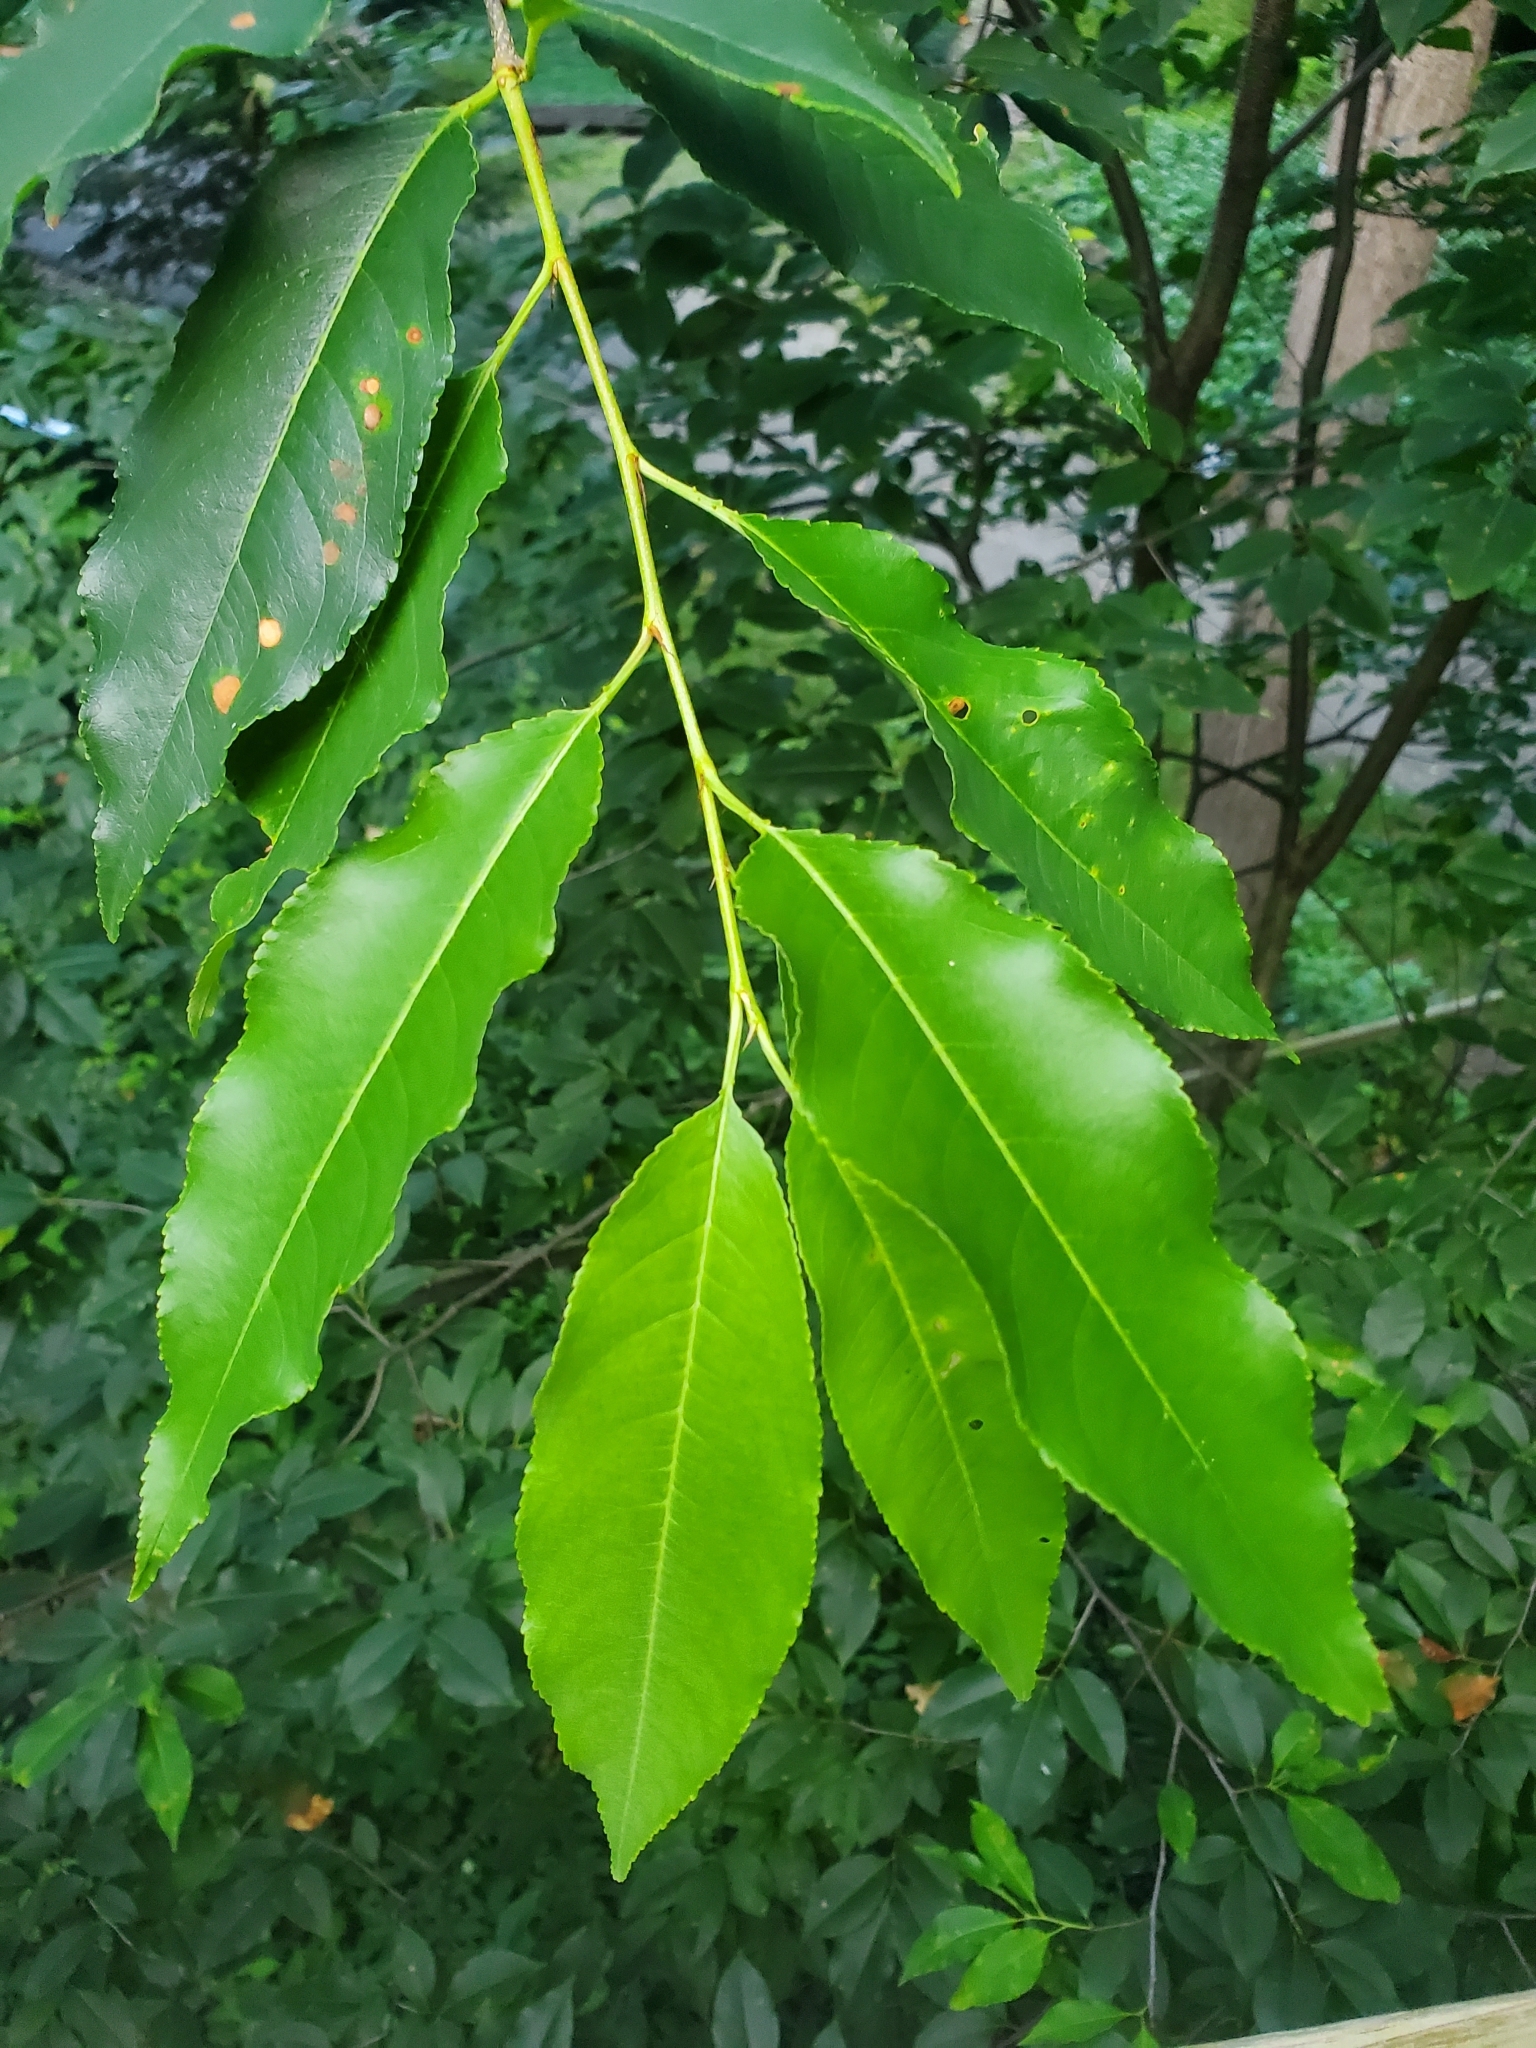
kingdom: Plantae
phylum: Tracheophyta
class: Magnoliopsida
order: Rosales
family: Rosaceae
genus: Prunus
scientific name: Prunus serotina
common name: Black cherry
